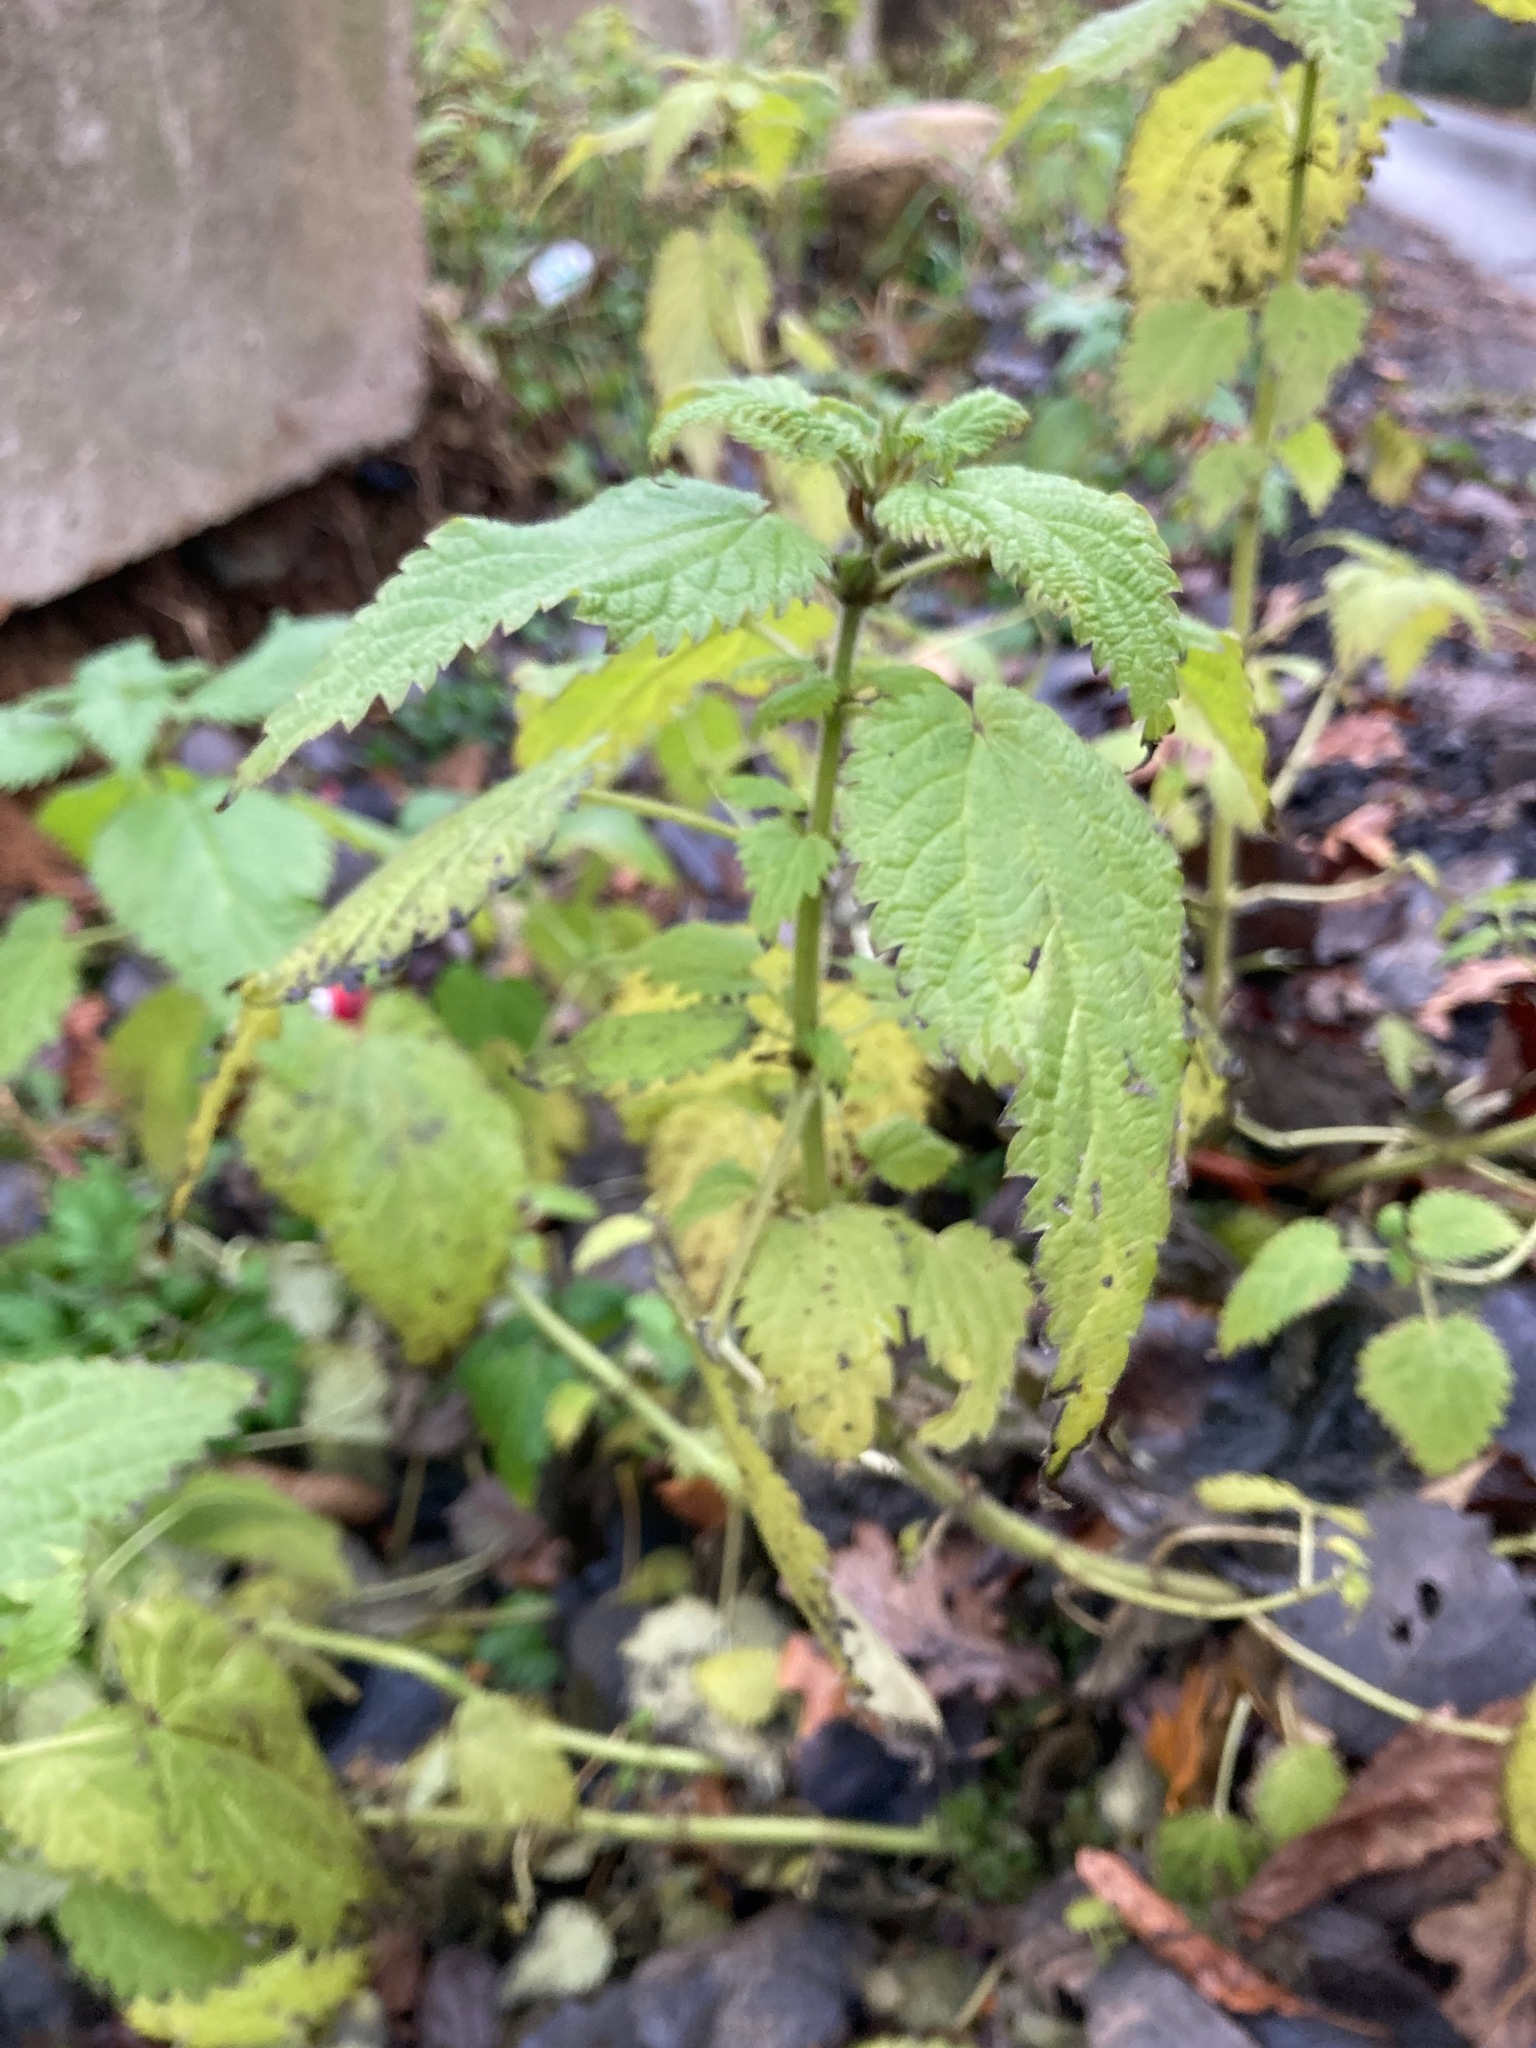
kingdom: Plantae
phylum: Tracheophyta
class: Magnoliopsida
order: Rosales
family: Urticaceae
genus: Urtica
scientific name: Urtica dioica
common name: Common nettle
